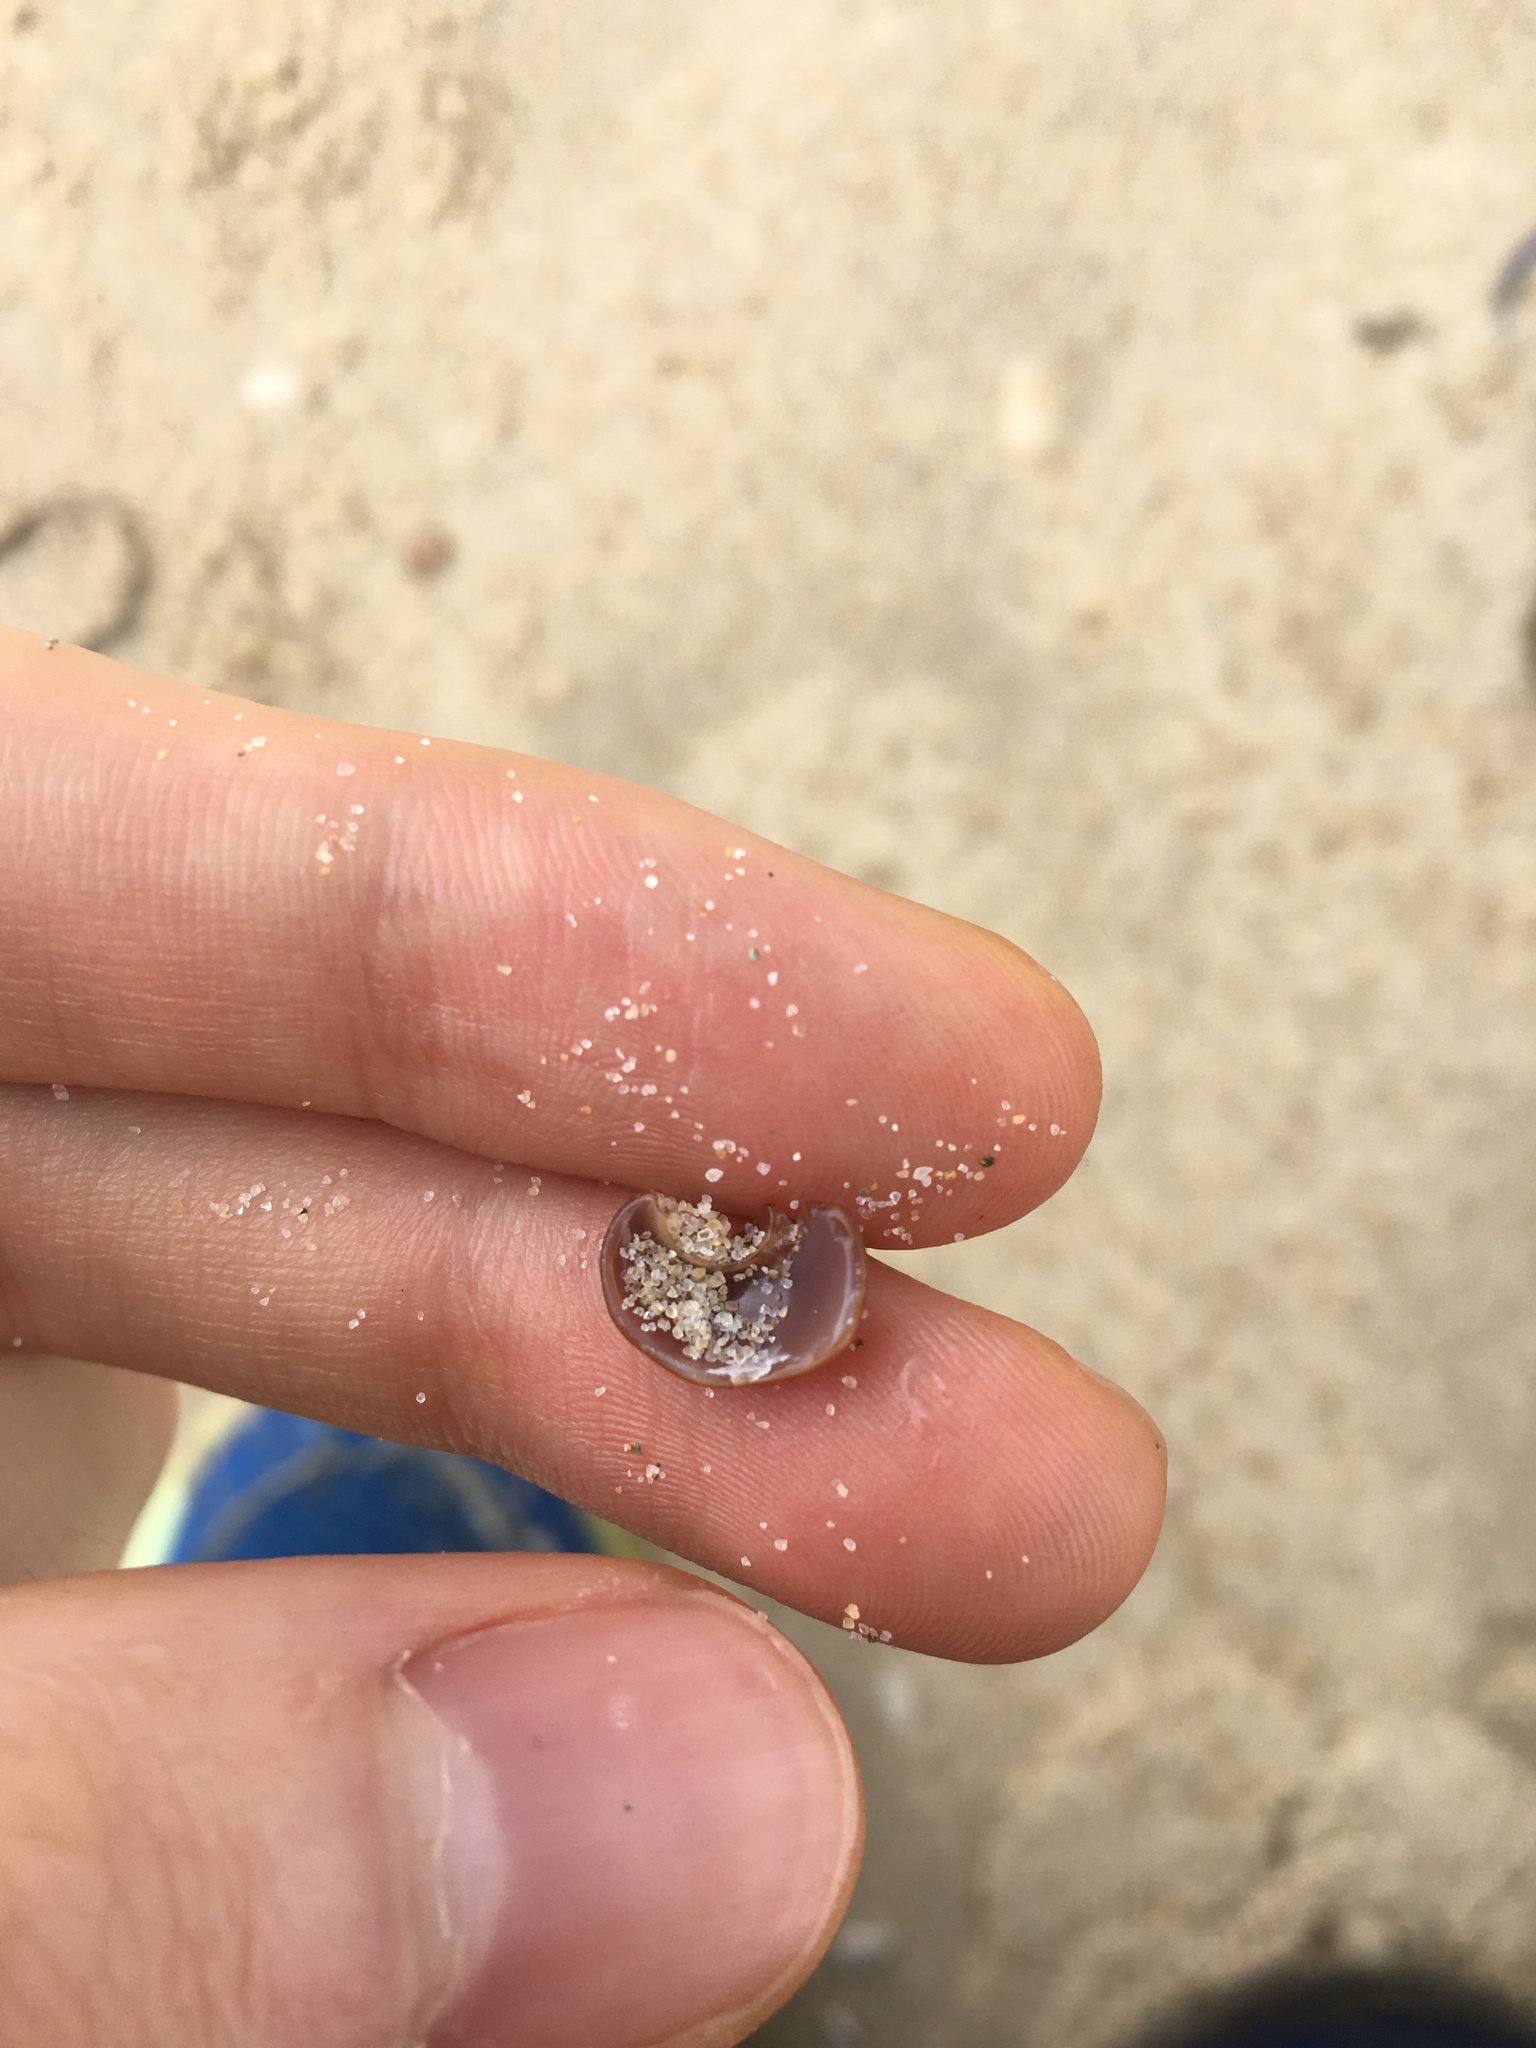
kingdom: Animalia
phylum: Mollusca
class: Gastropoda
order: Littorinimorpha
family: Naticidae
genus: Conuber
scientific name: Conuber incei
